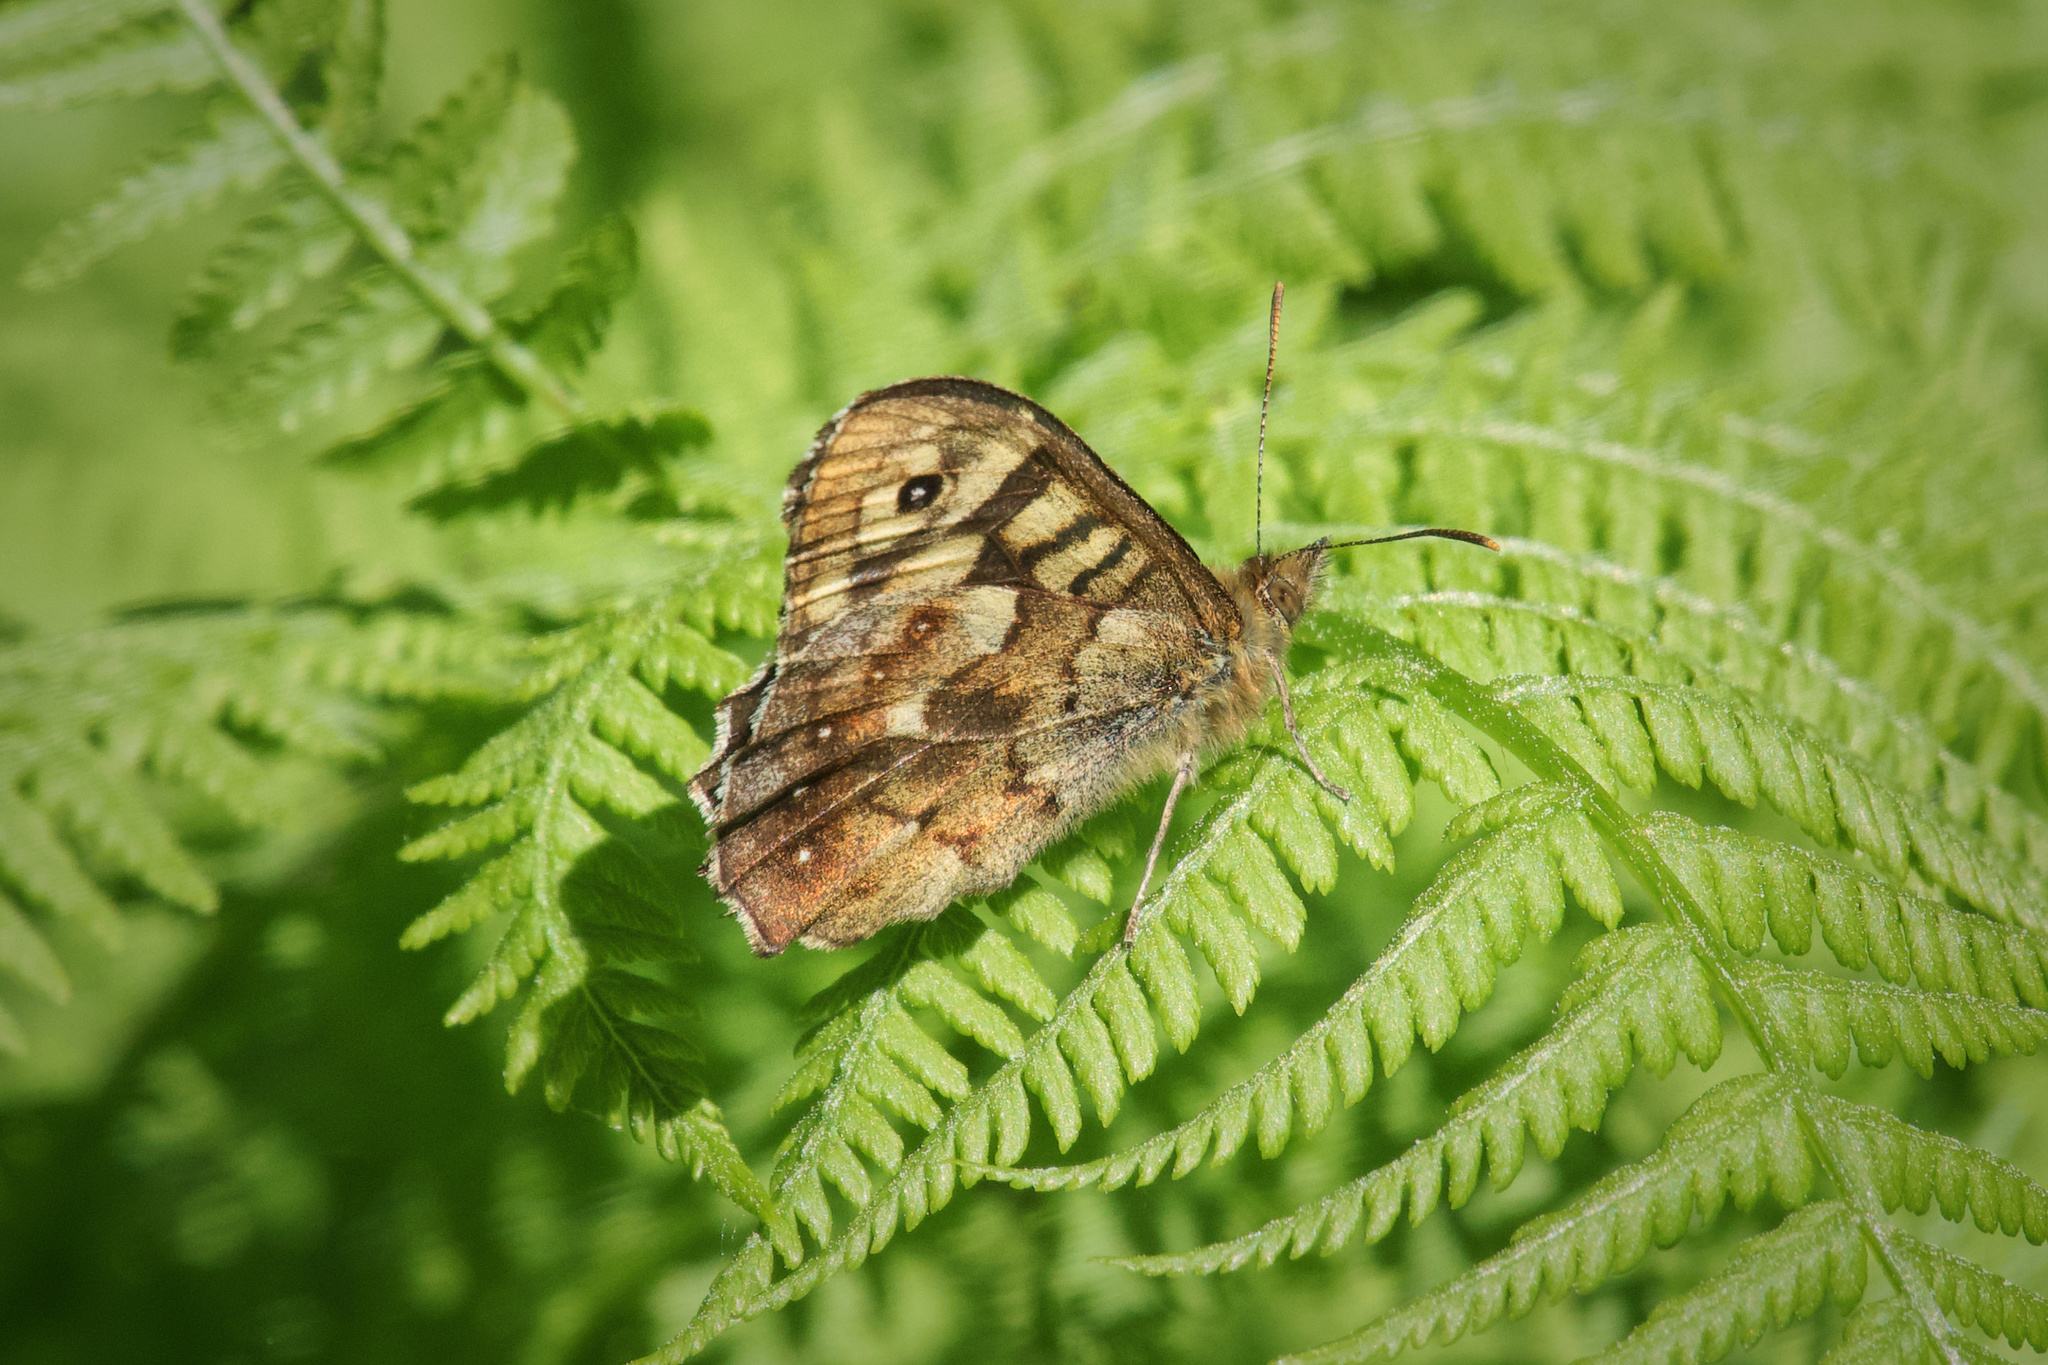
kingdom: Animalia
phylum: Arthropoda
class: Insecta
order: Lepidoptera
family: Nymphalidae
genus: Pararge
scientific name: Pararge aegeria
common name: Speckled wood
